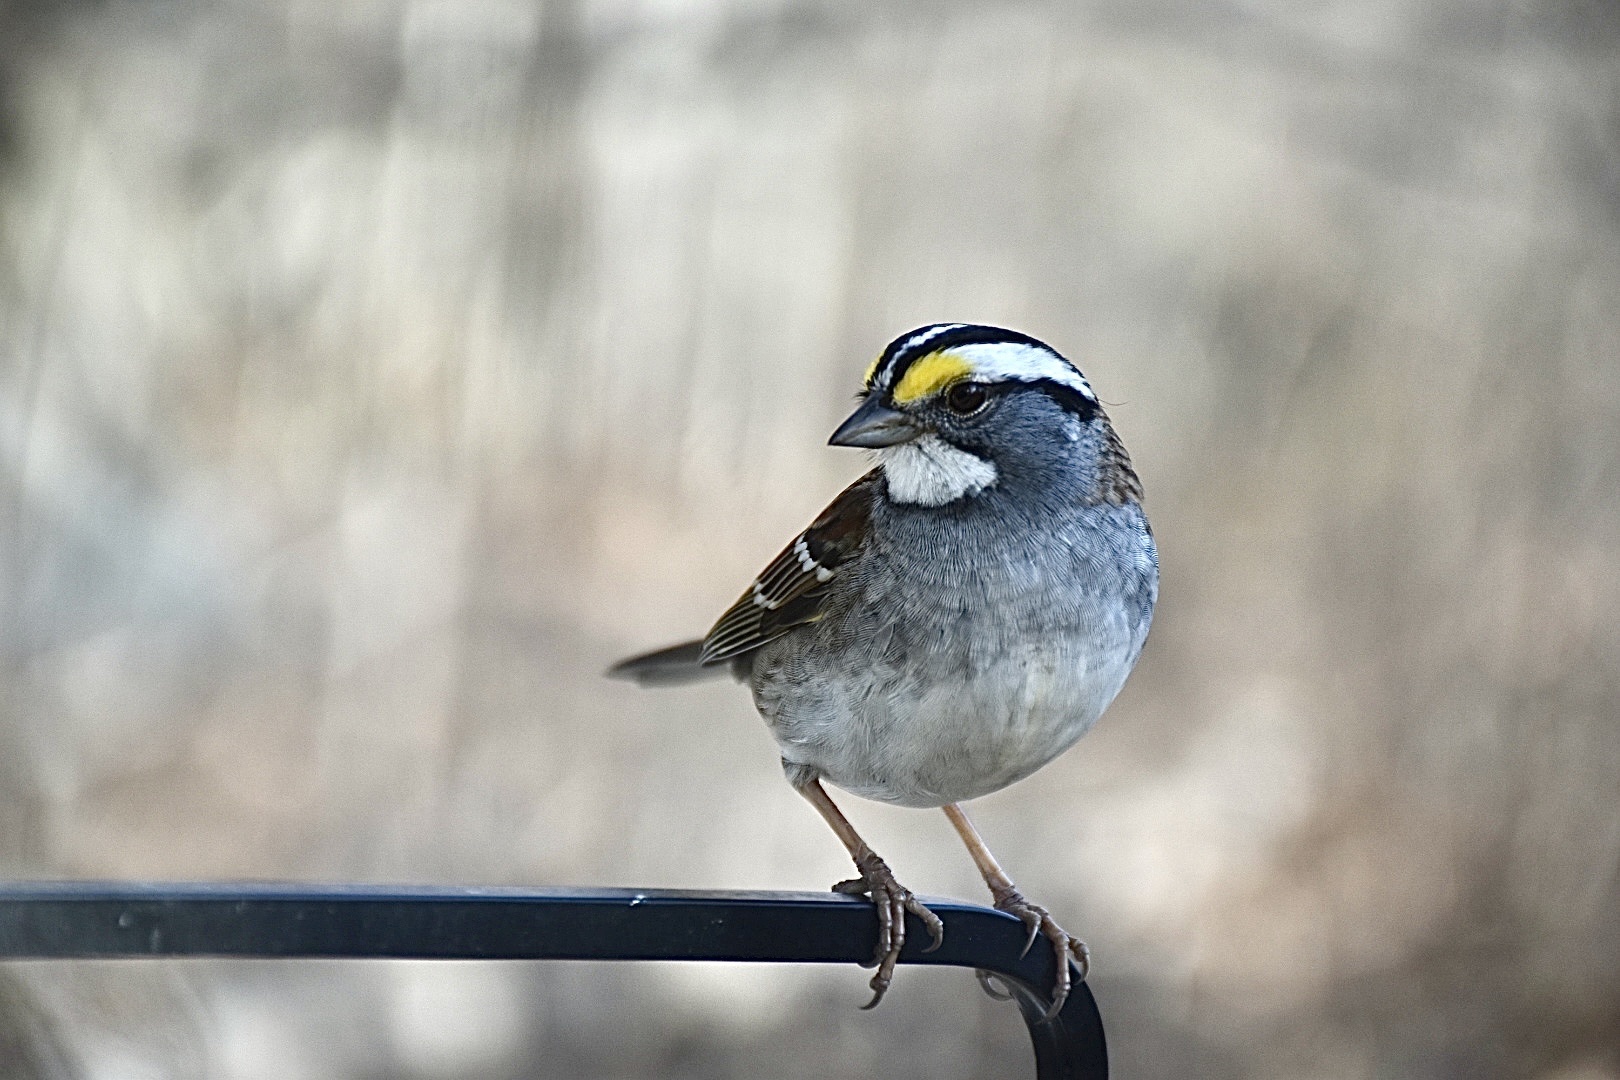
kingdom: Animalia
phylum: Chordata
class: Aves
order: Passeriformes
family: Passerellidae
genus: Zonotrichia
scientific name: Zonotrichia albicollis
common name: White-throated sparrow
